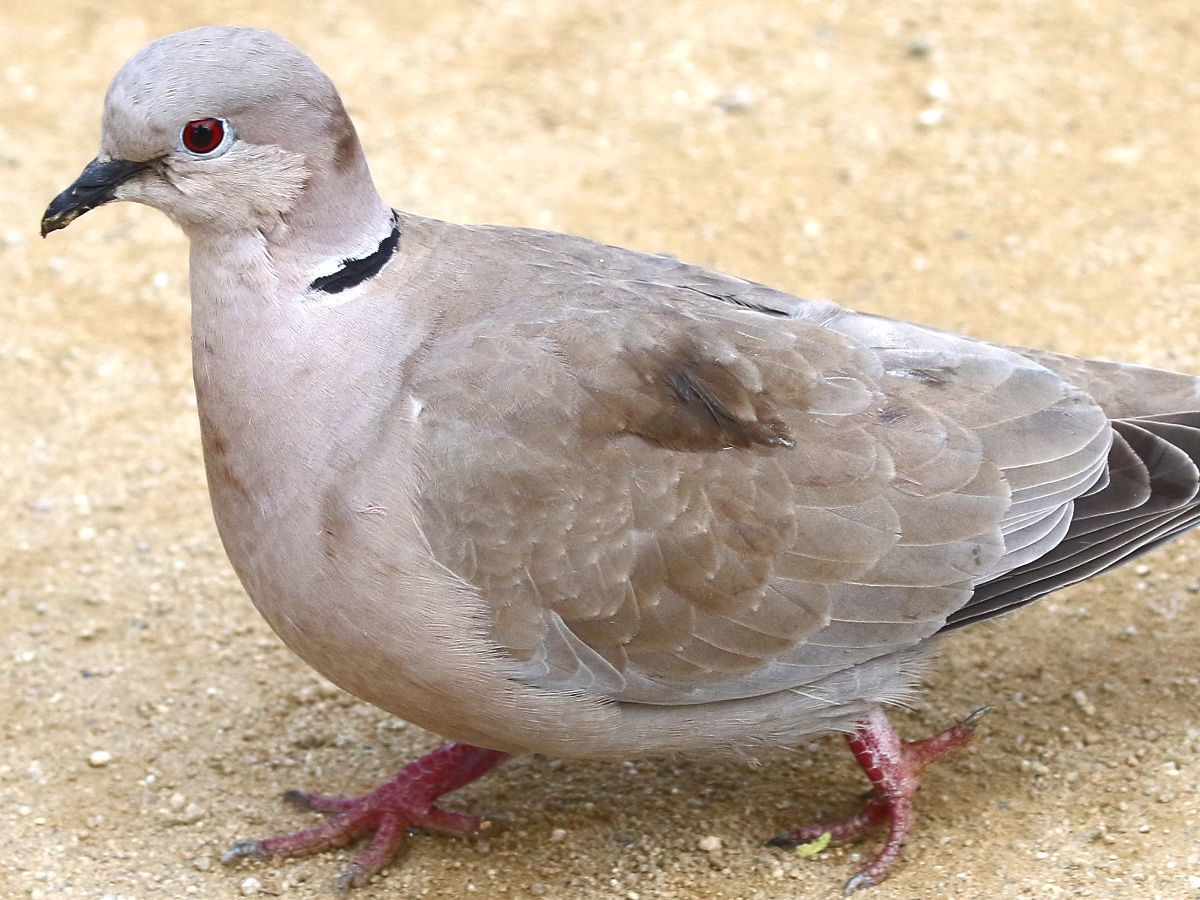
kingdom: Animalia
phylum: Chordata
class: Aves
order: Columbiformes
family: Columbidae
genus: Streptopelia
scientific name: Streptopelia decaocto
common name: Eurasian collared dove
